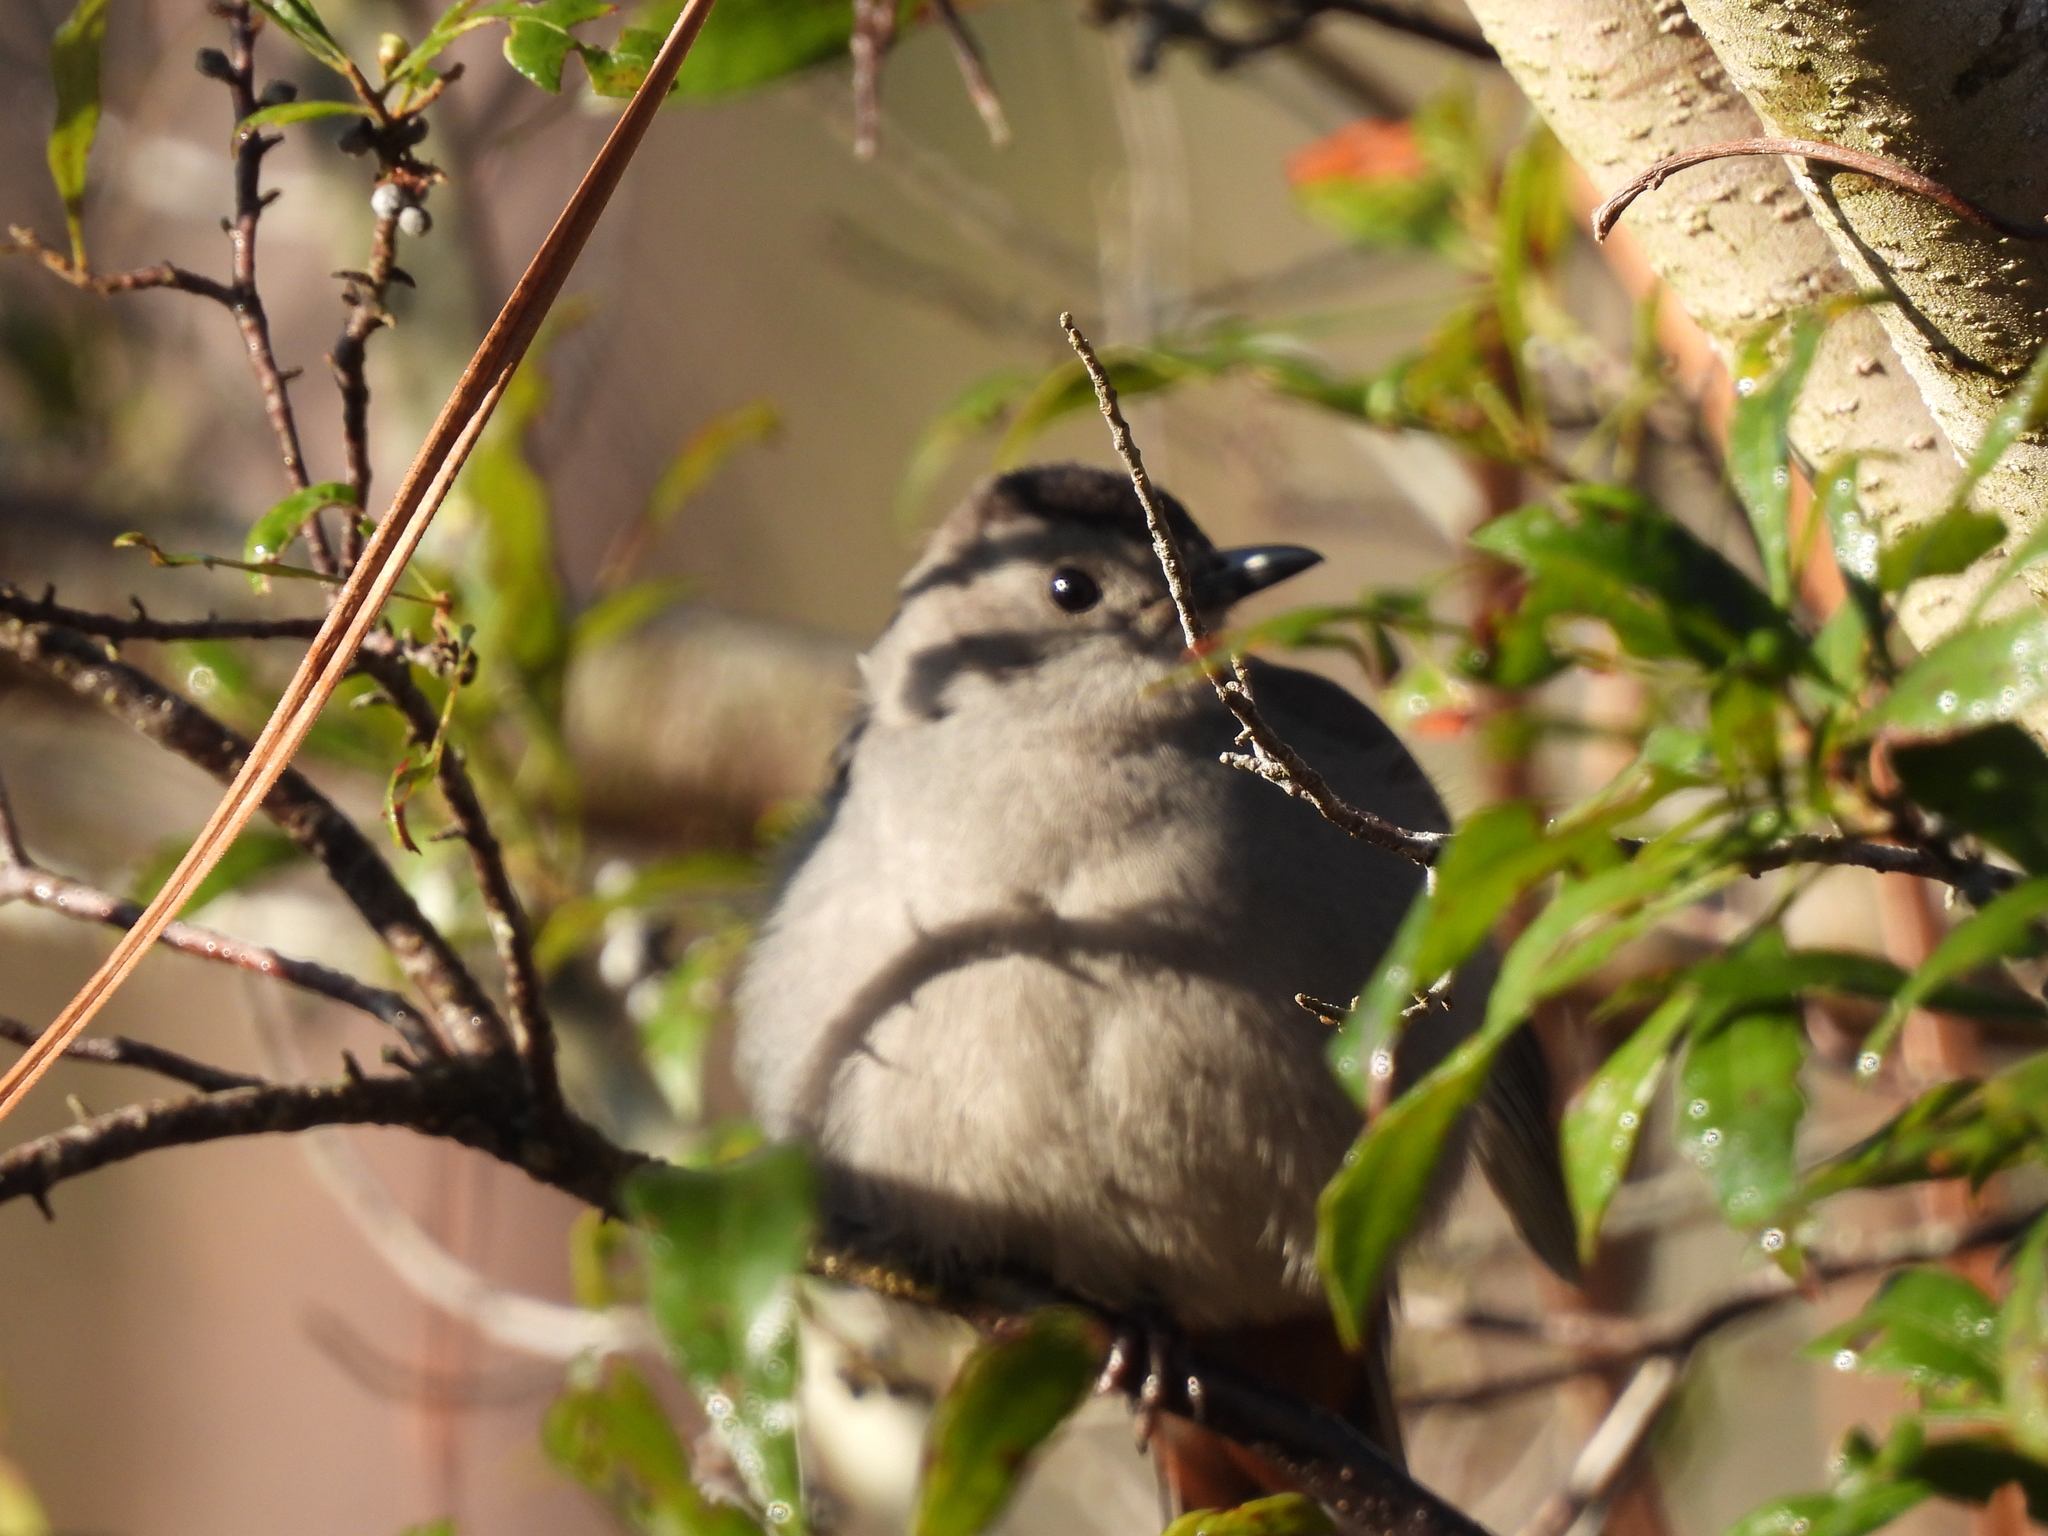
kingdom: Animalia
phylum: Chordata
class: Aves
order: Passeriformes
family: Mimidae
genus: Dumetella
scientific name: Dumetella carolinensis
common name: Gray catbird
